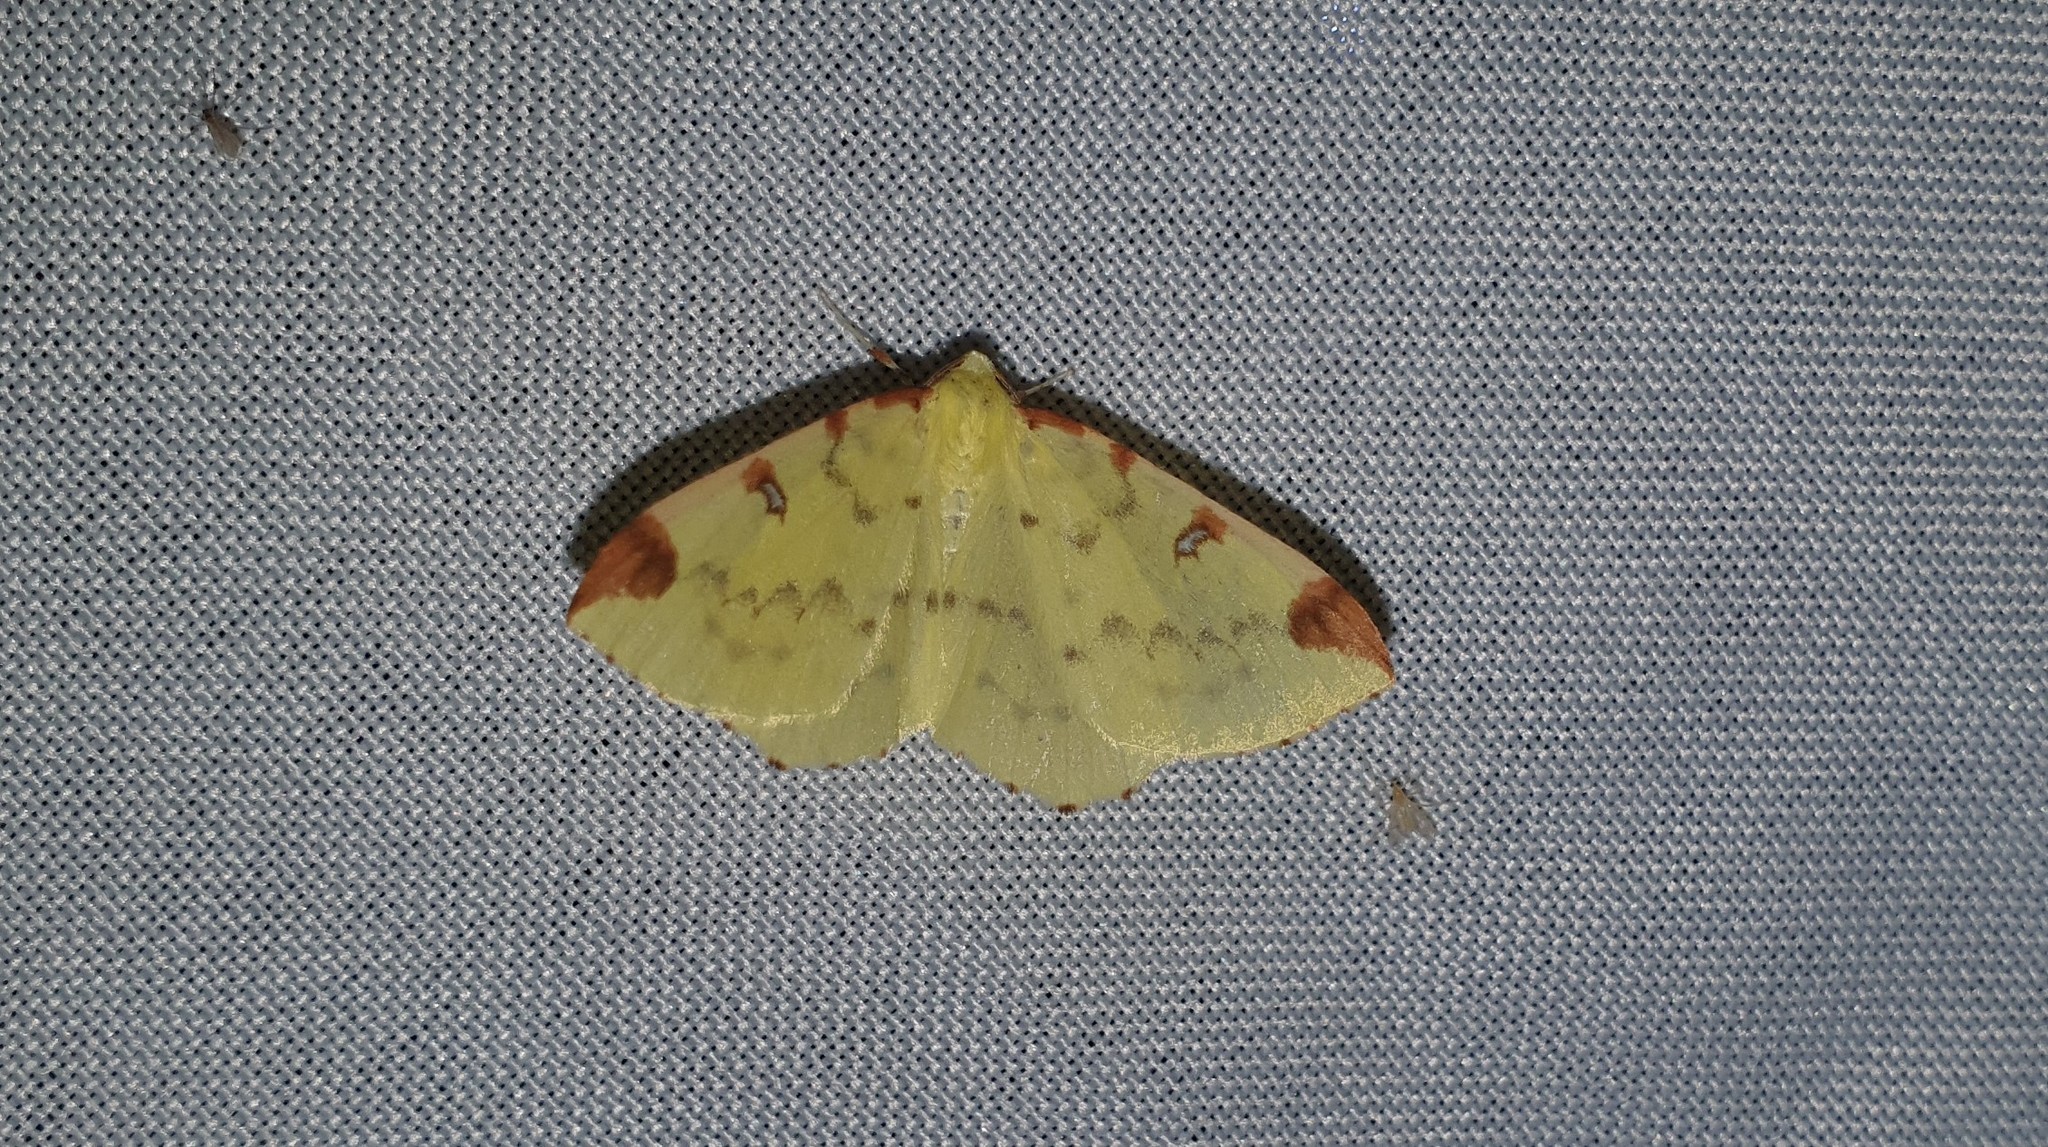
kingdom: Animalia
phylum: Arthropoda
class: Insecta
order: Lepidoptera
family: Geometridae
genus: Opisthograptis
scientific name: Opisthograptis luteolata
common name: Brimstone moth
